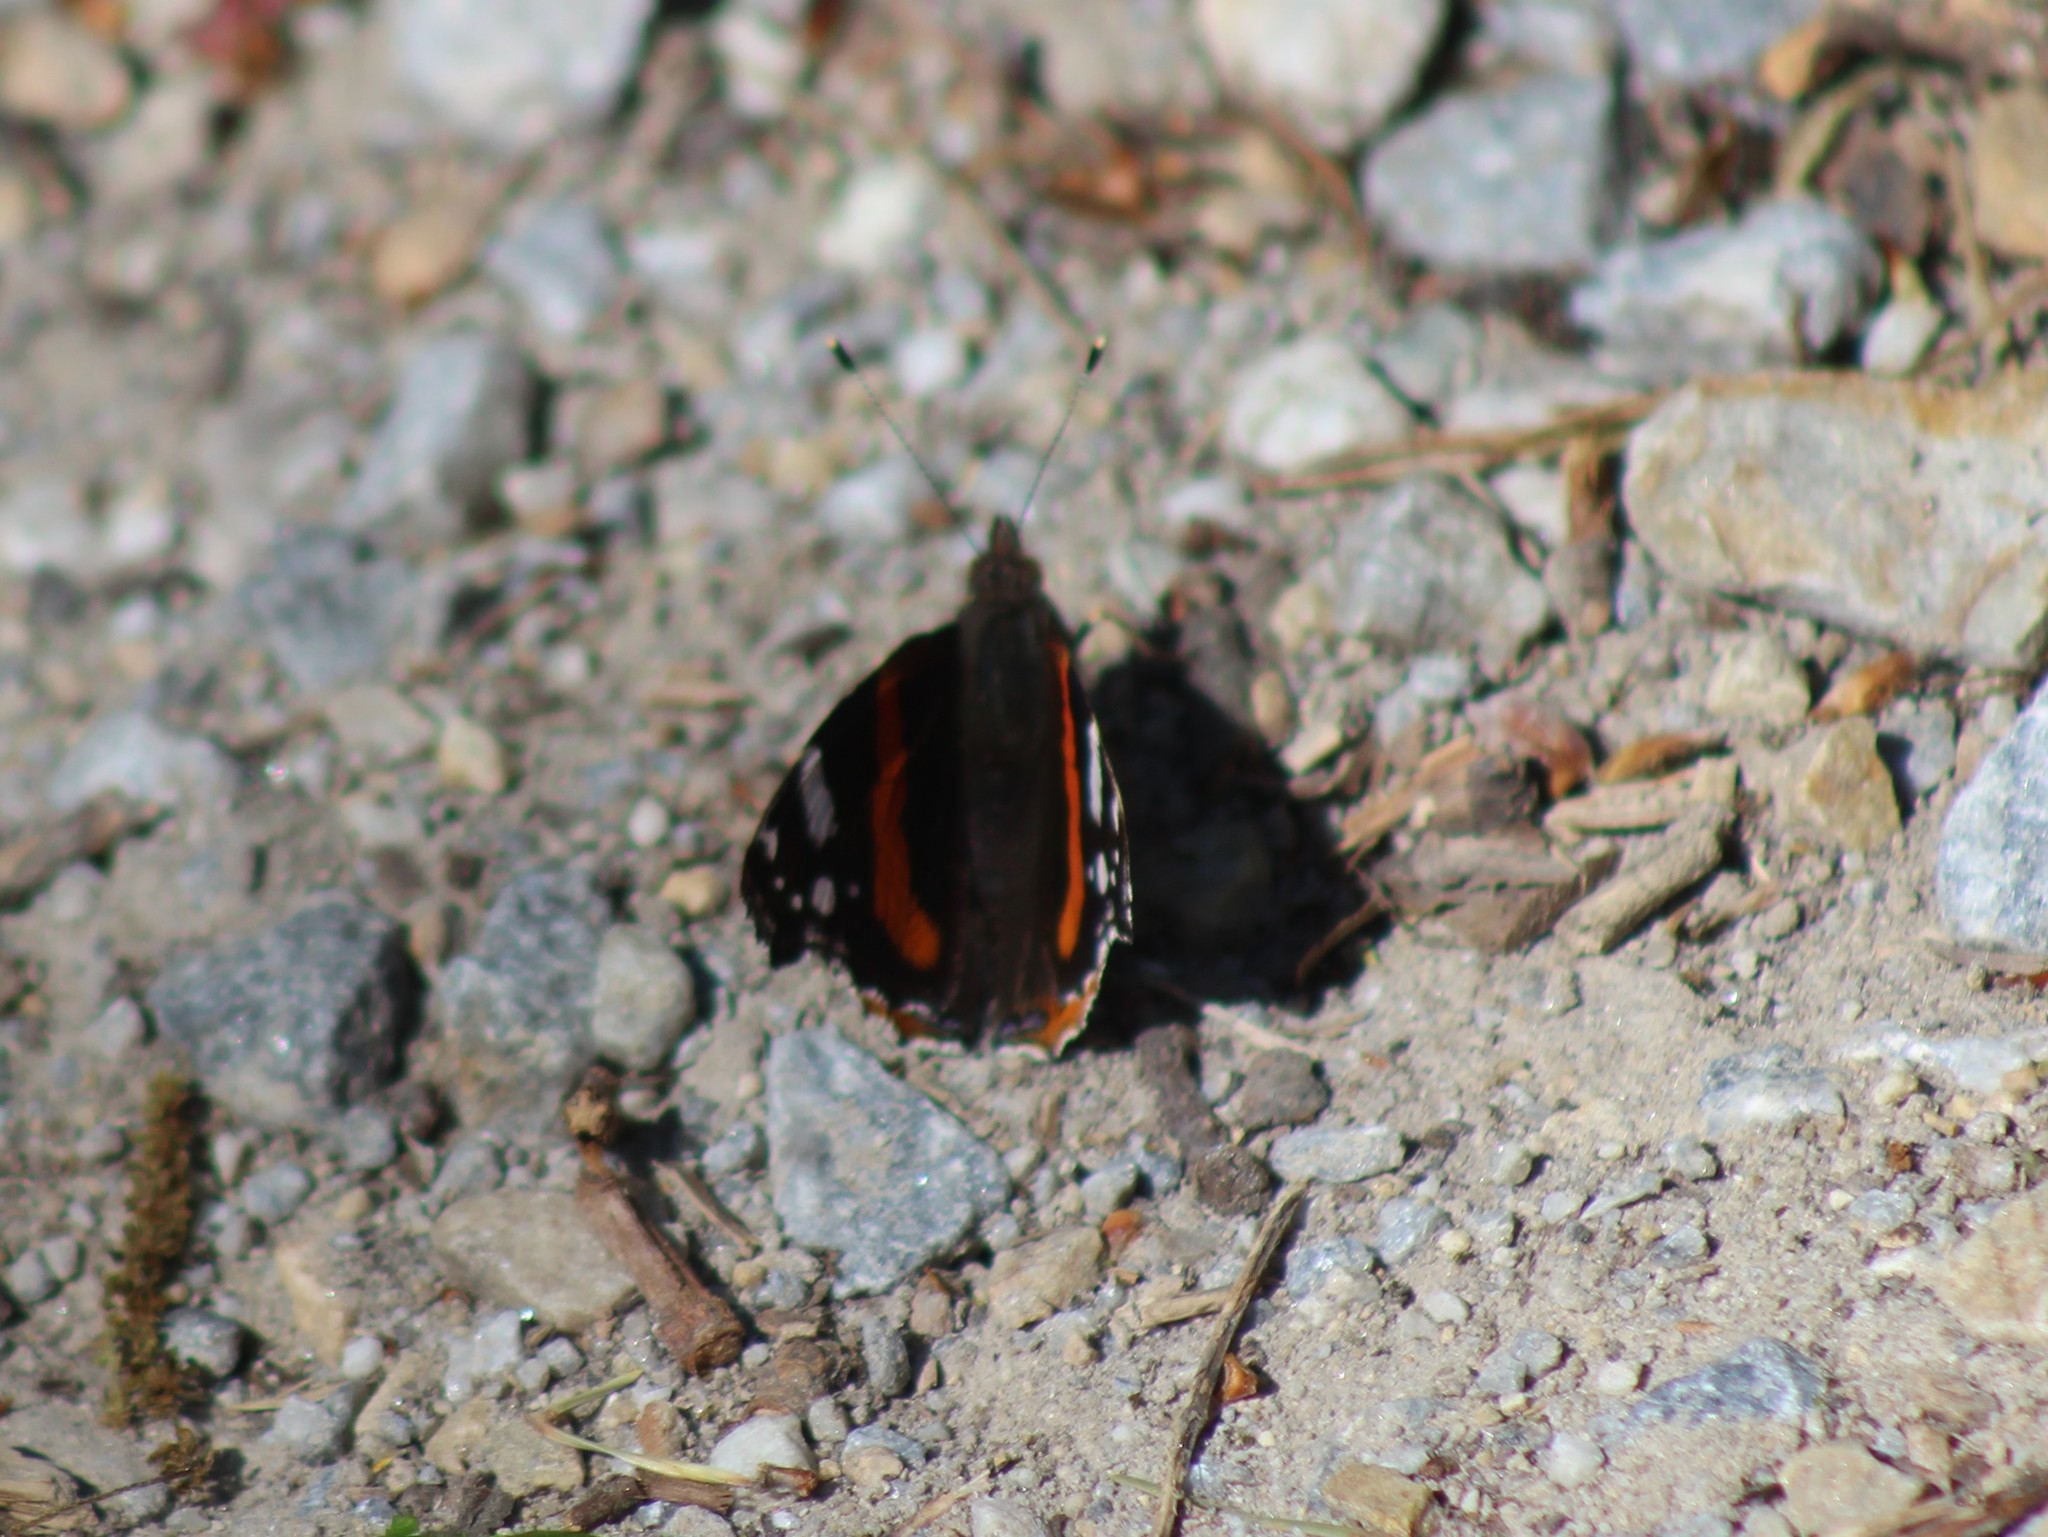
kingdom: Animalia
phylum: Arthropoda
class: Insecta
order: Lepidoptera
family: Nymphalidae
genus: Vanessa
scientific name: Vanessa atalanta
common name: Red admiral
